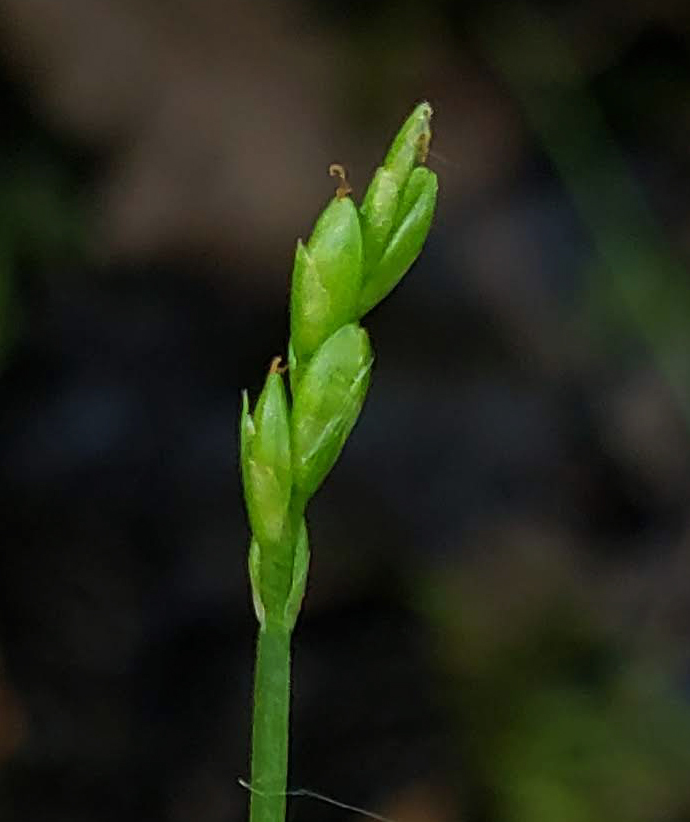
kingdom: Plantae
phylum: Tracheophyta
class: Liliopsida
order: Poales
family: Cyperaceae
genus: Carex
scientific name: Carex leptalea
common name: Bristly-stalked sedge
